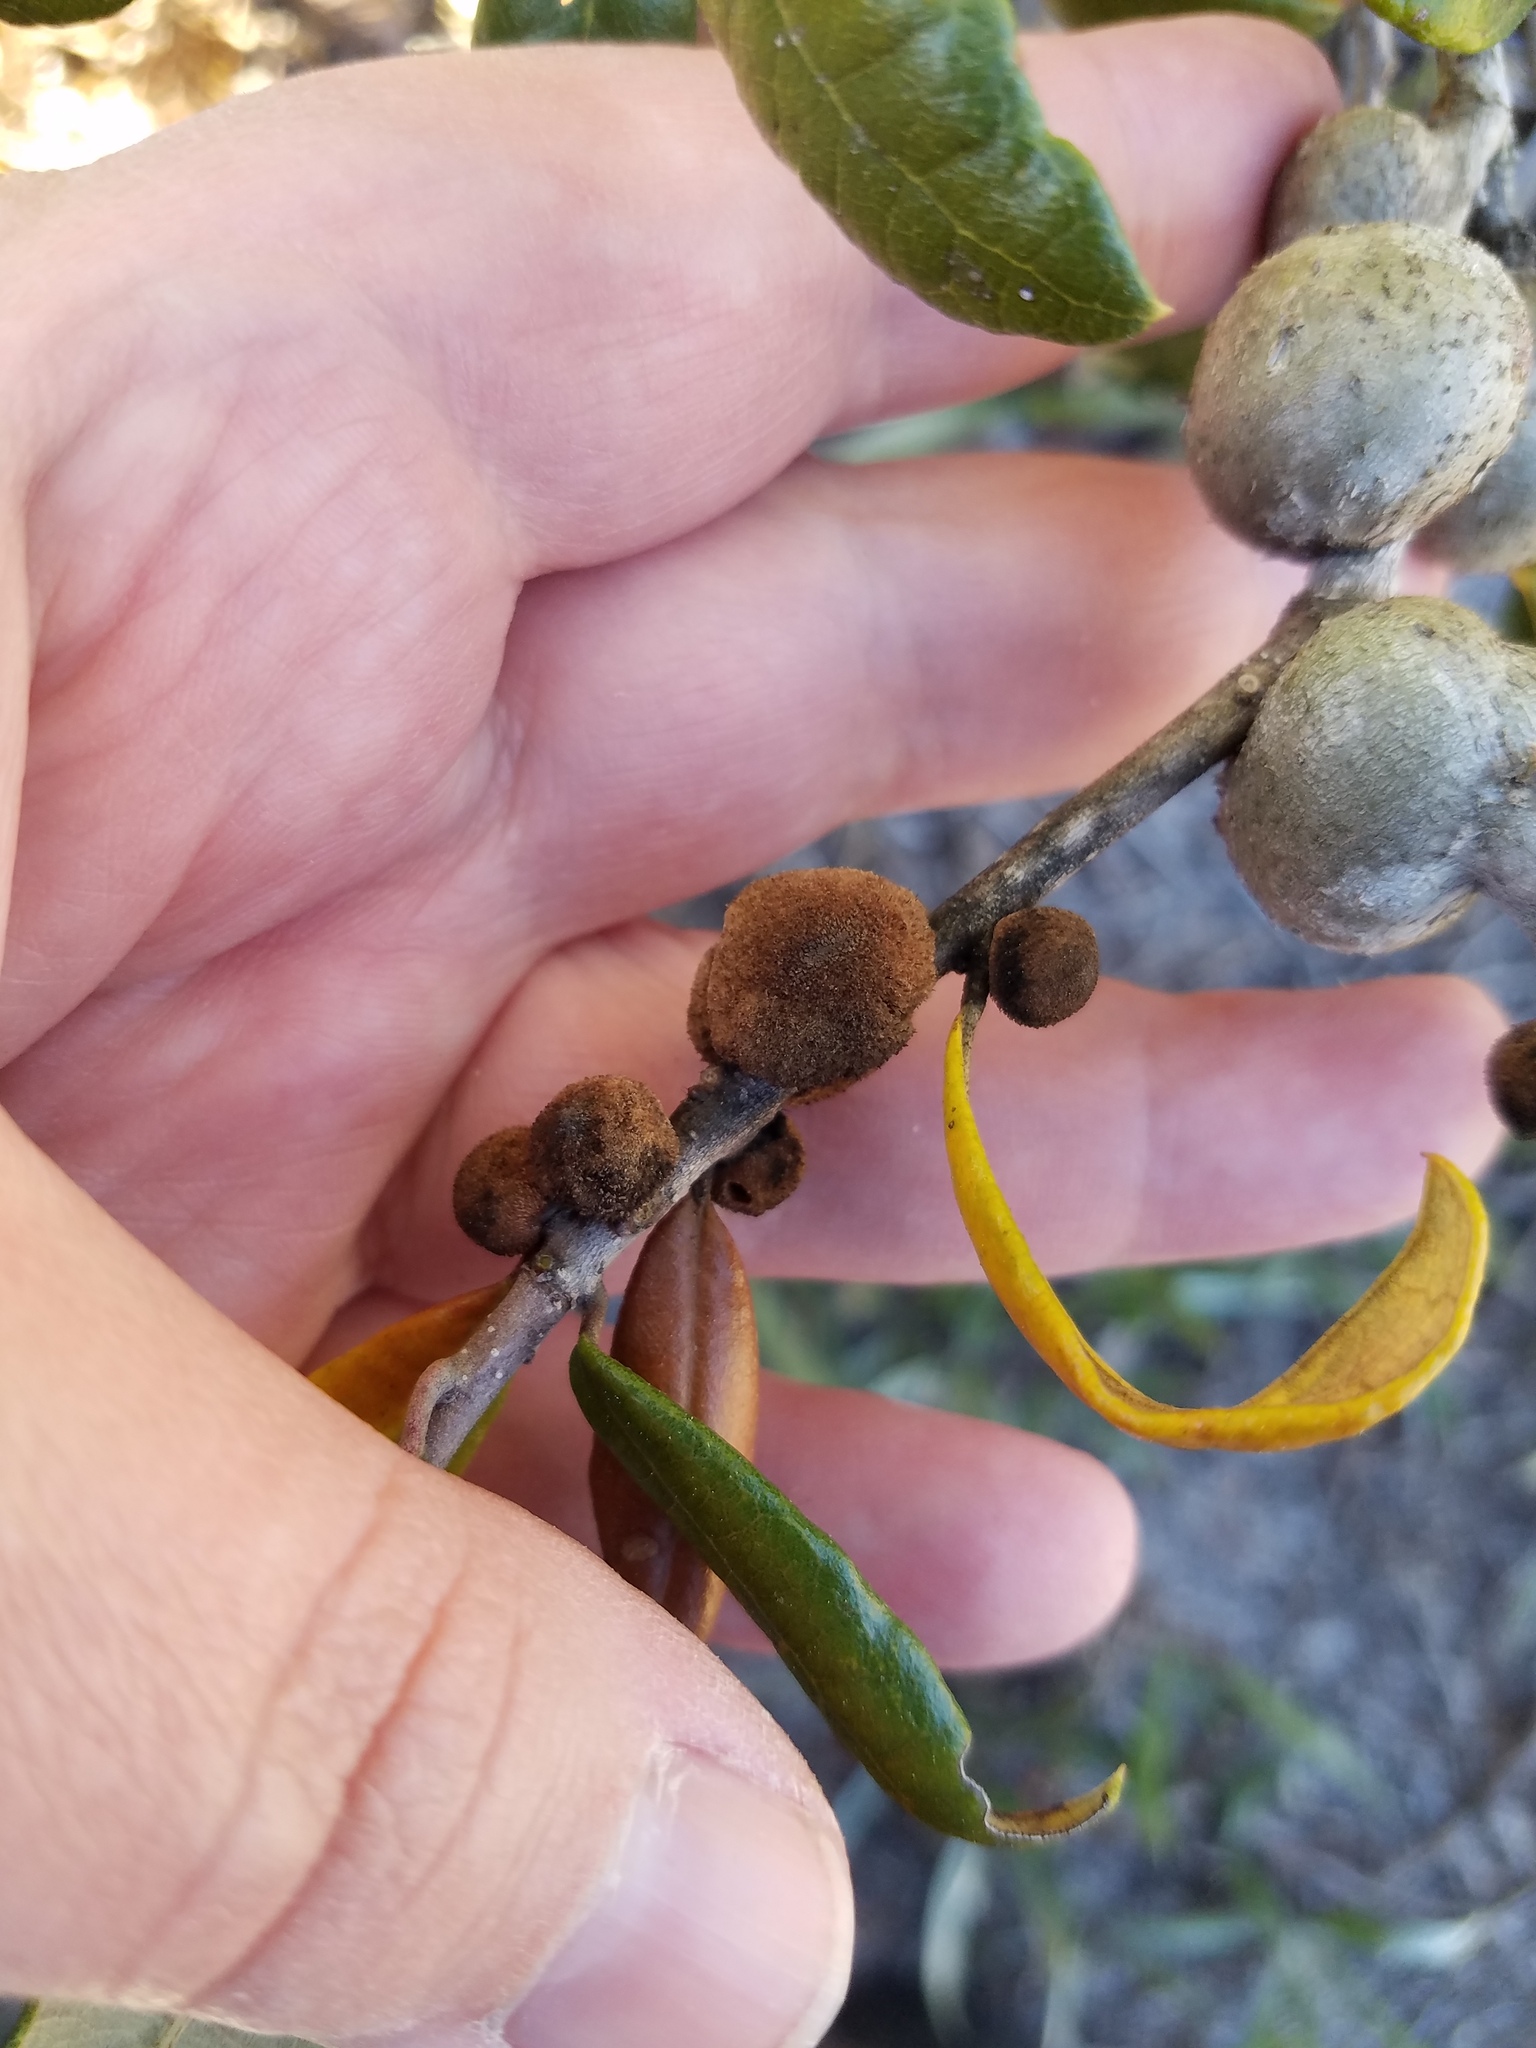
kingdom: Animalia
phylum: Arthropoda
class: Insecta
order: Hymenoptera
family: Cynipidae
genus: Disholcaspis
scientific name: Disholcaspis
